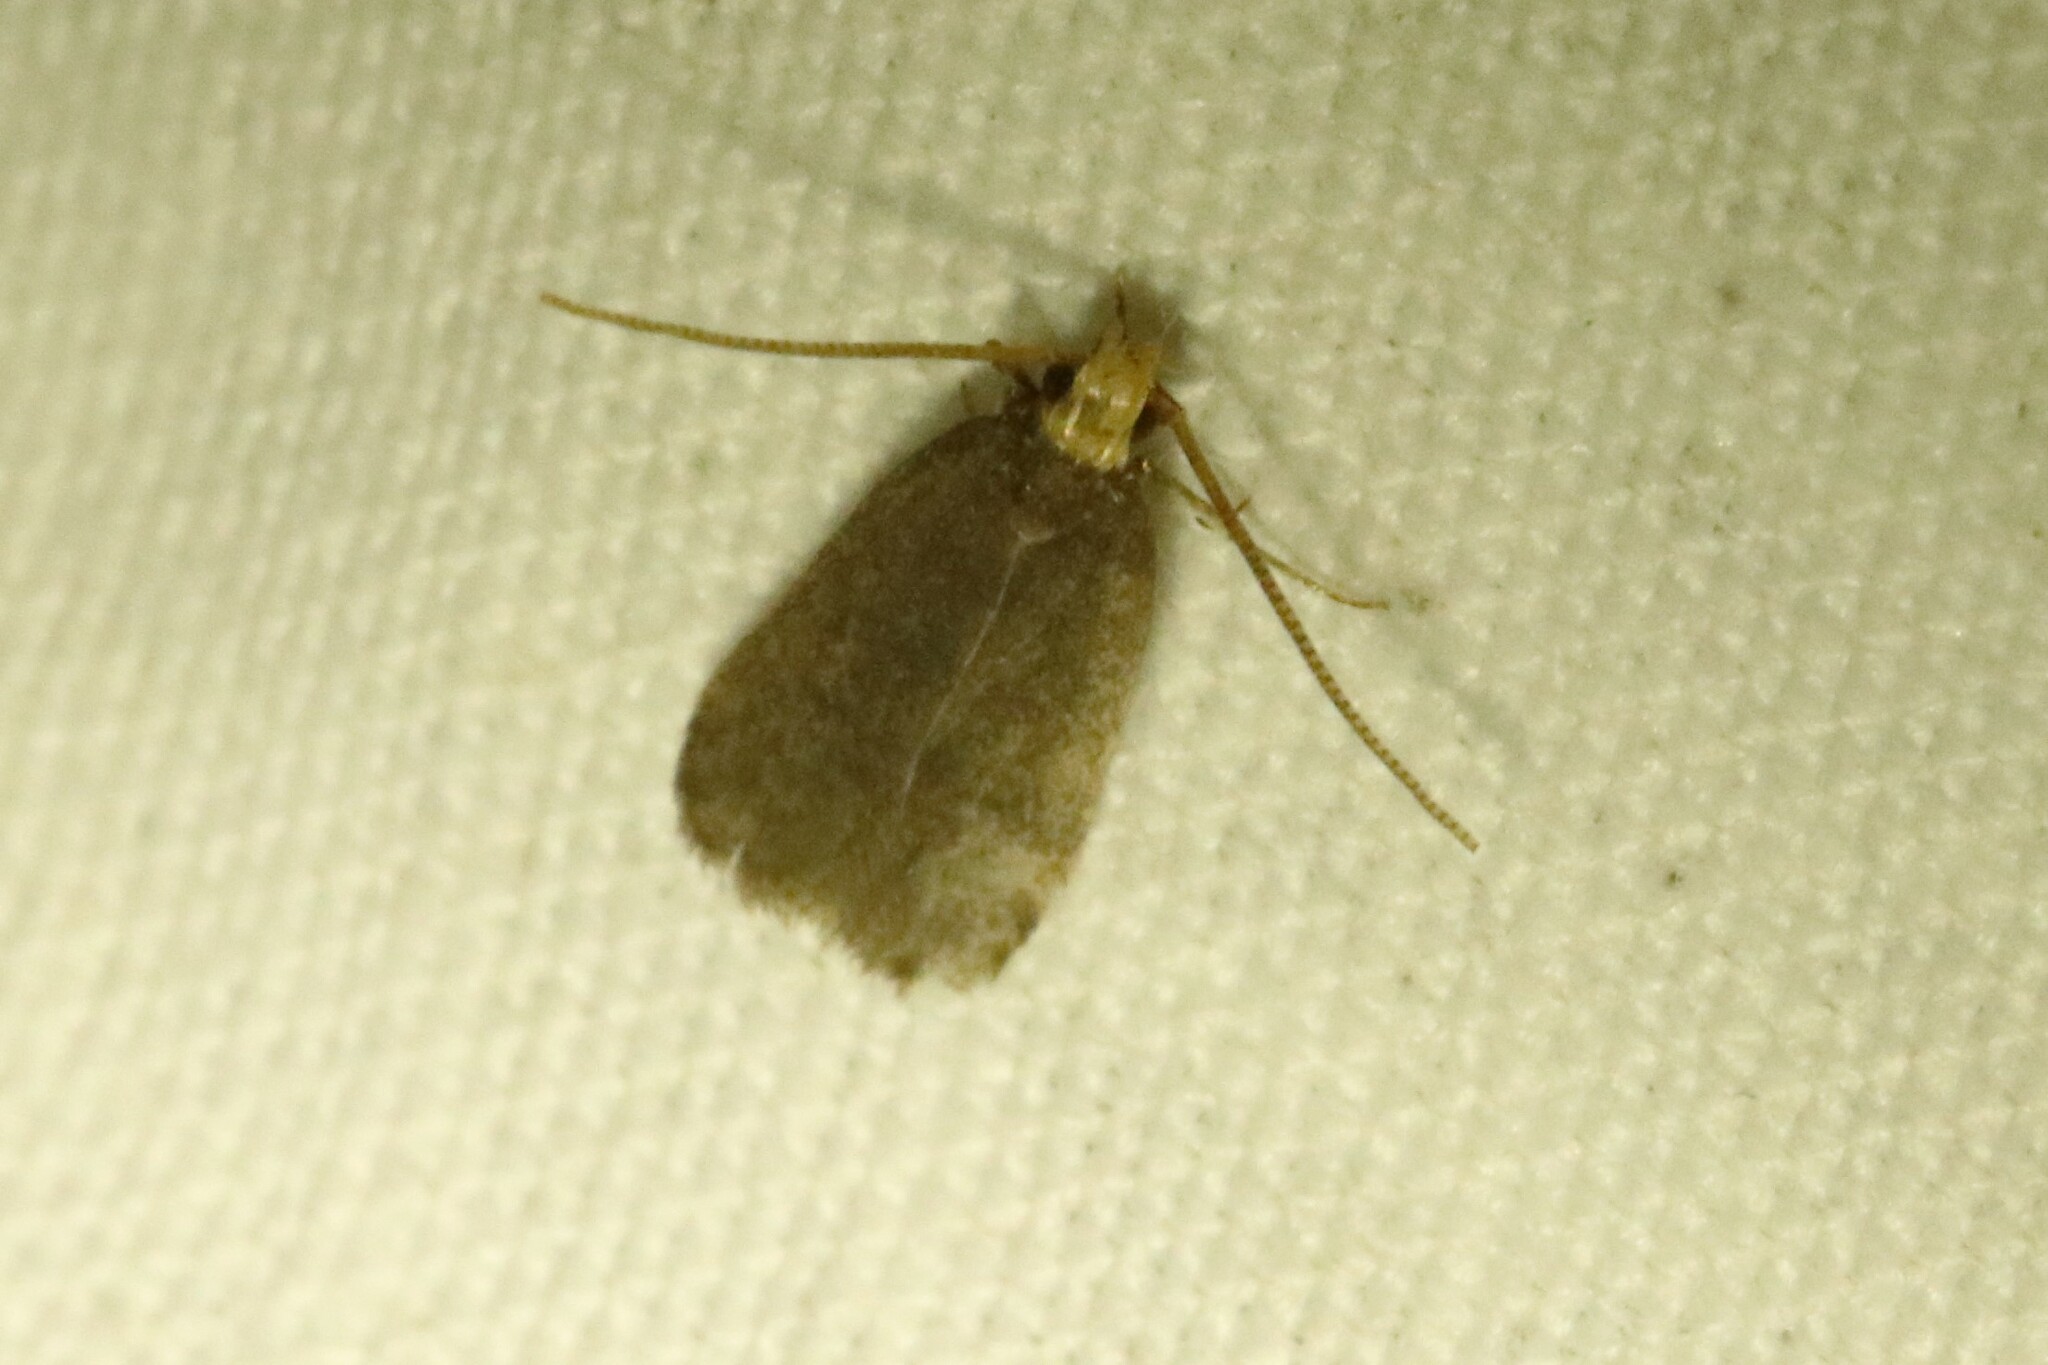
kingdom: Animalia
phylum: Arthropoda
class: Insecta
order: Lepidoptera
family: Depressariidae
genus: Depressaria
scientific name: Depressaria depressana
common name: Lost flat-body
